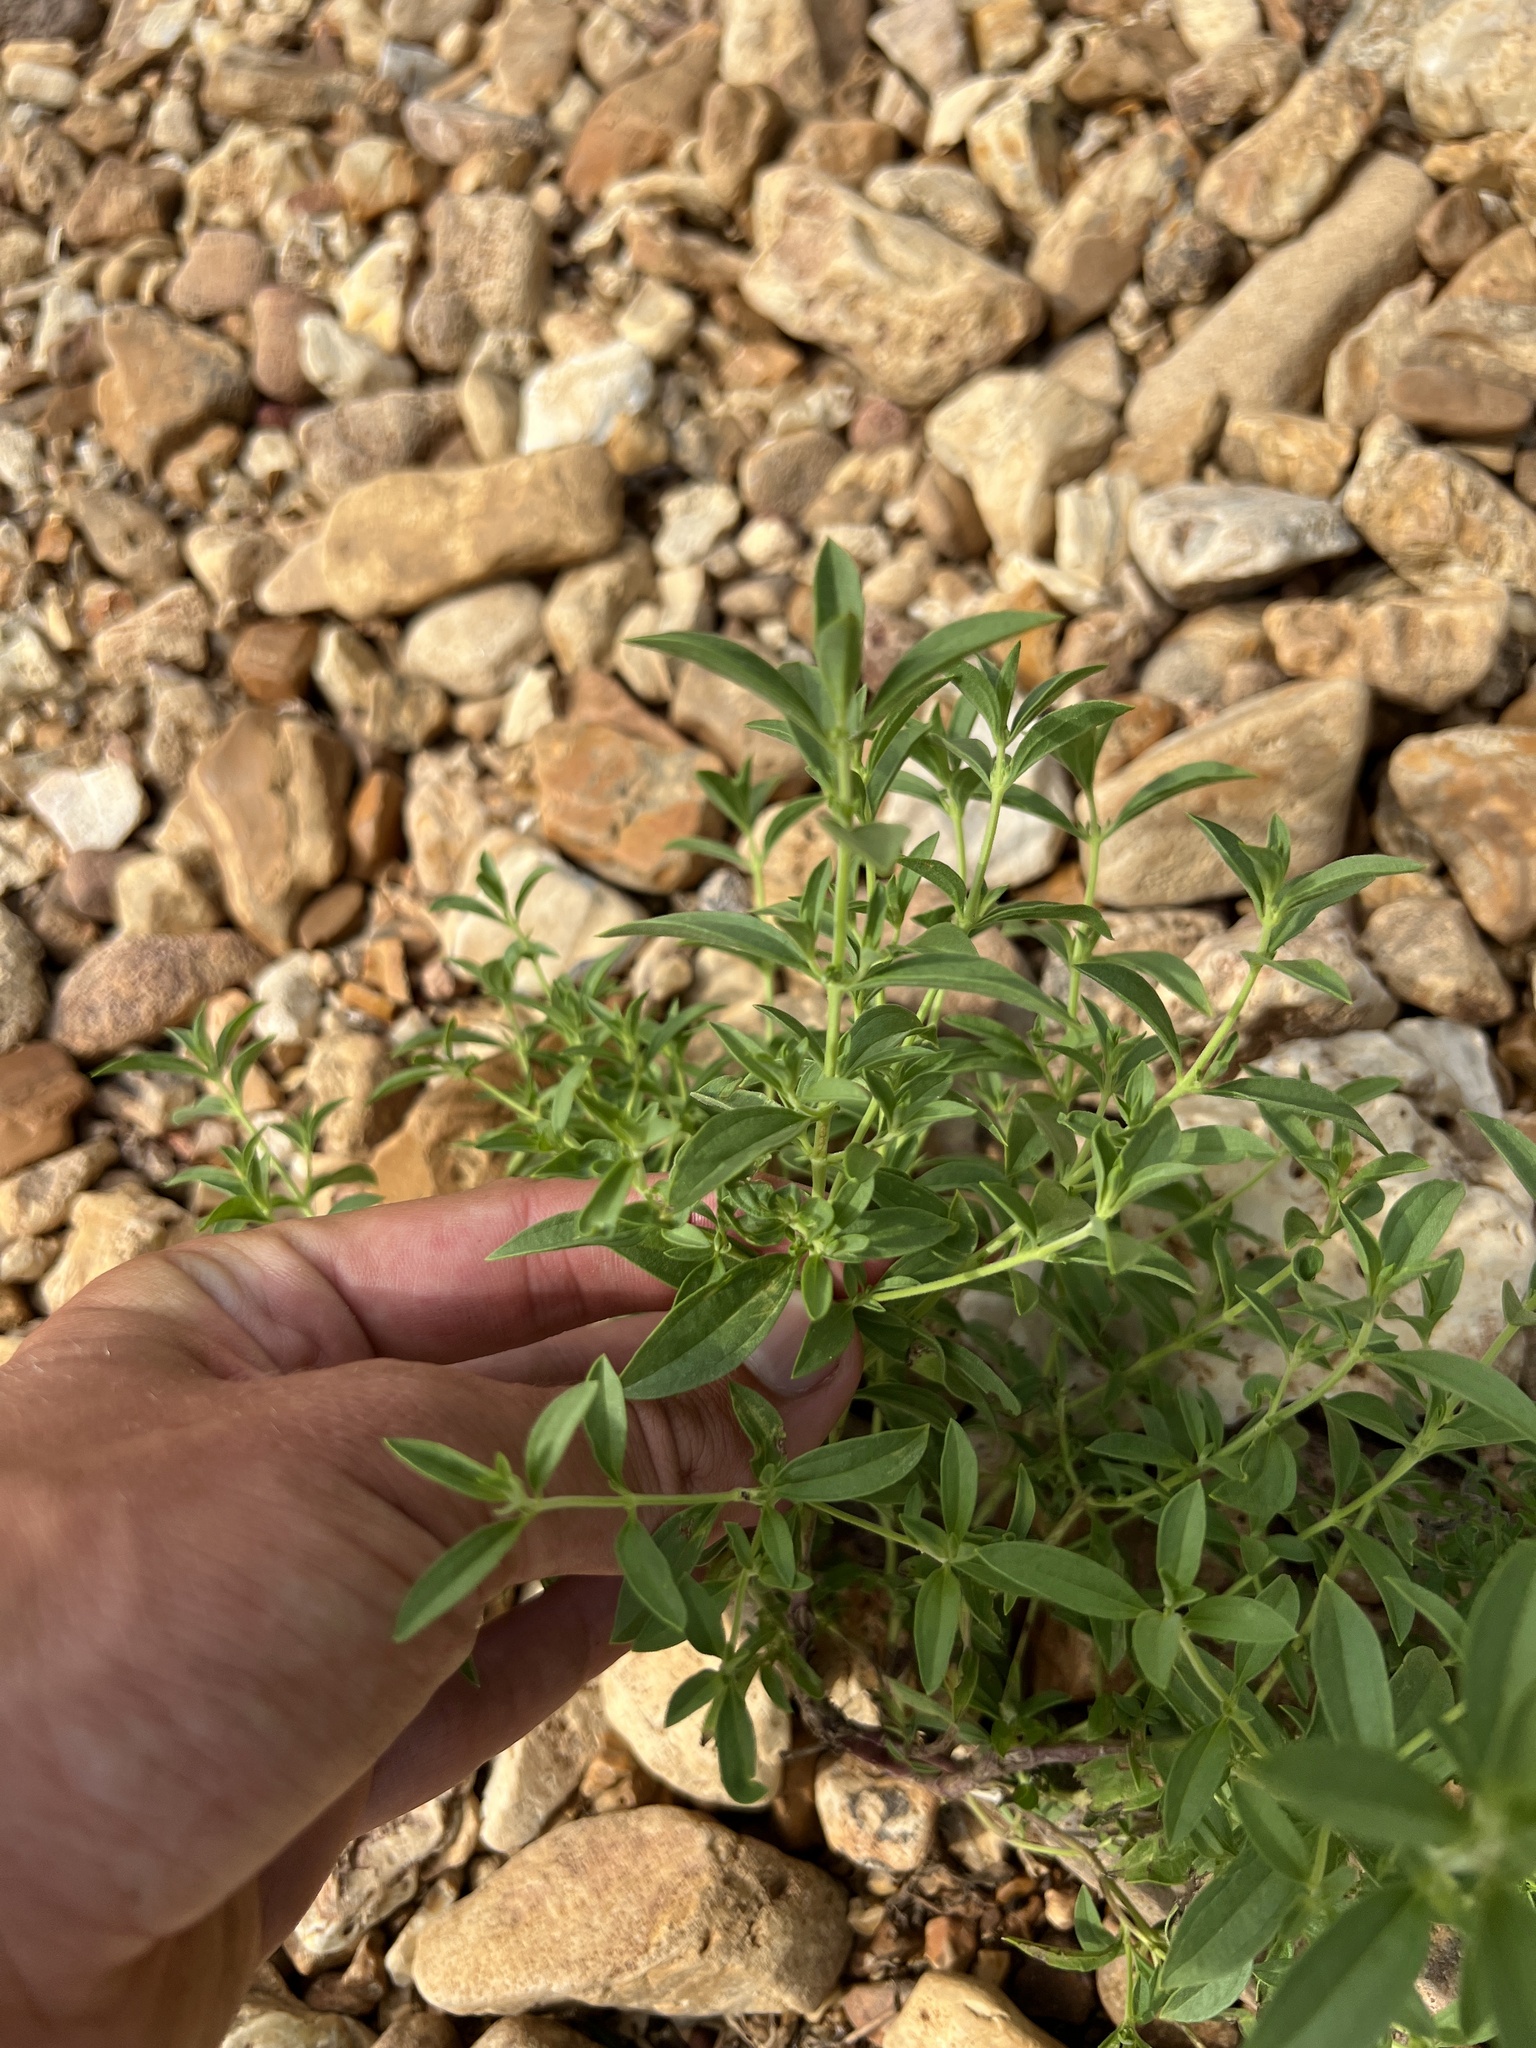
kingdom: Plantae
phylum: Tracheophyta
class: Magnoliopsida
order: Lamiales
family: Lamiaceae
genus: Trichostema
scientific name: Trichostema brachiatum
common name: False pennyroyal
